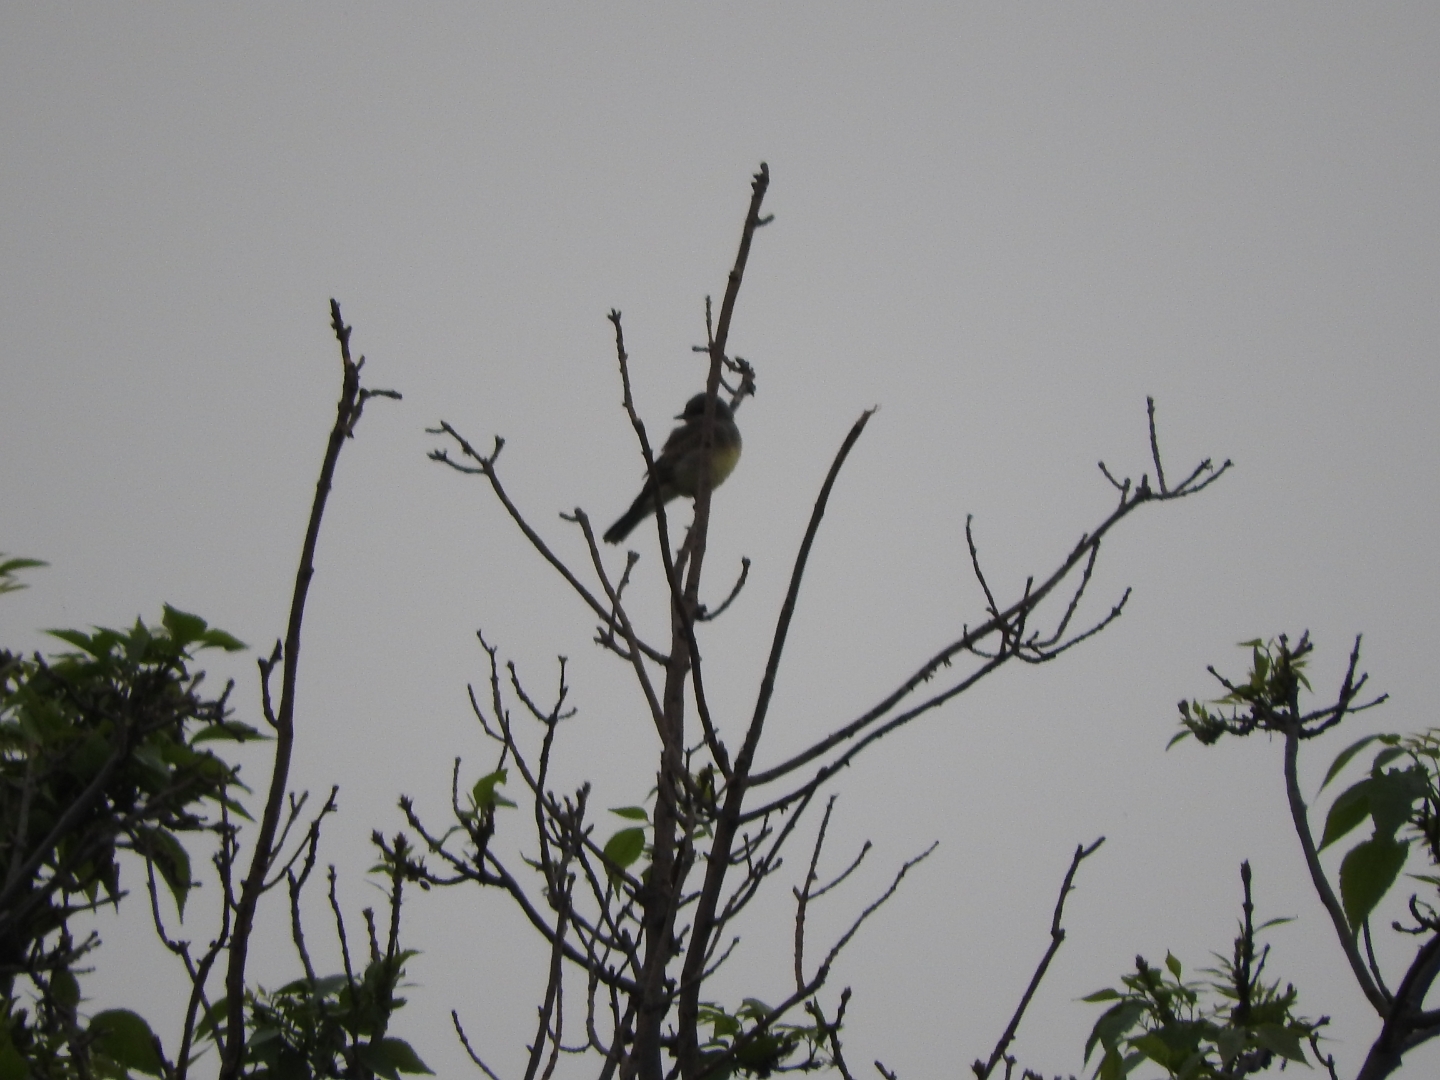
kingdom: Animalia
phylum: Chordata
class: Aves
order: Passeriformes
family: Tyrannidae
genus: Tyrannus
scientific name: Tyrannus vociferans
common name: Cassin's kingbird
